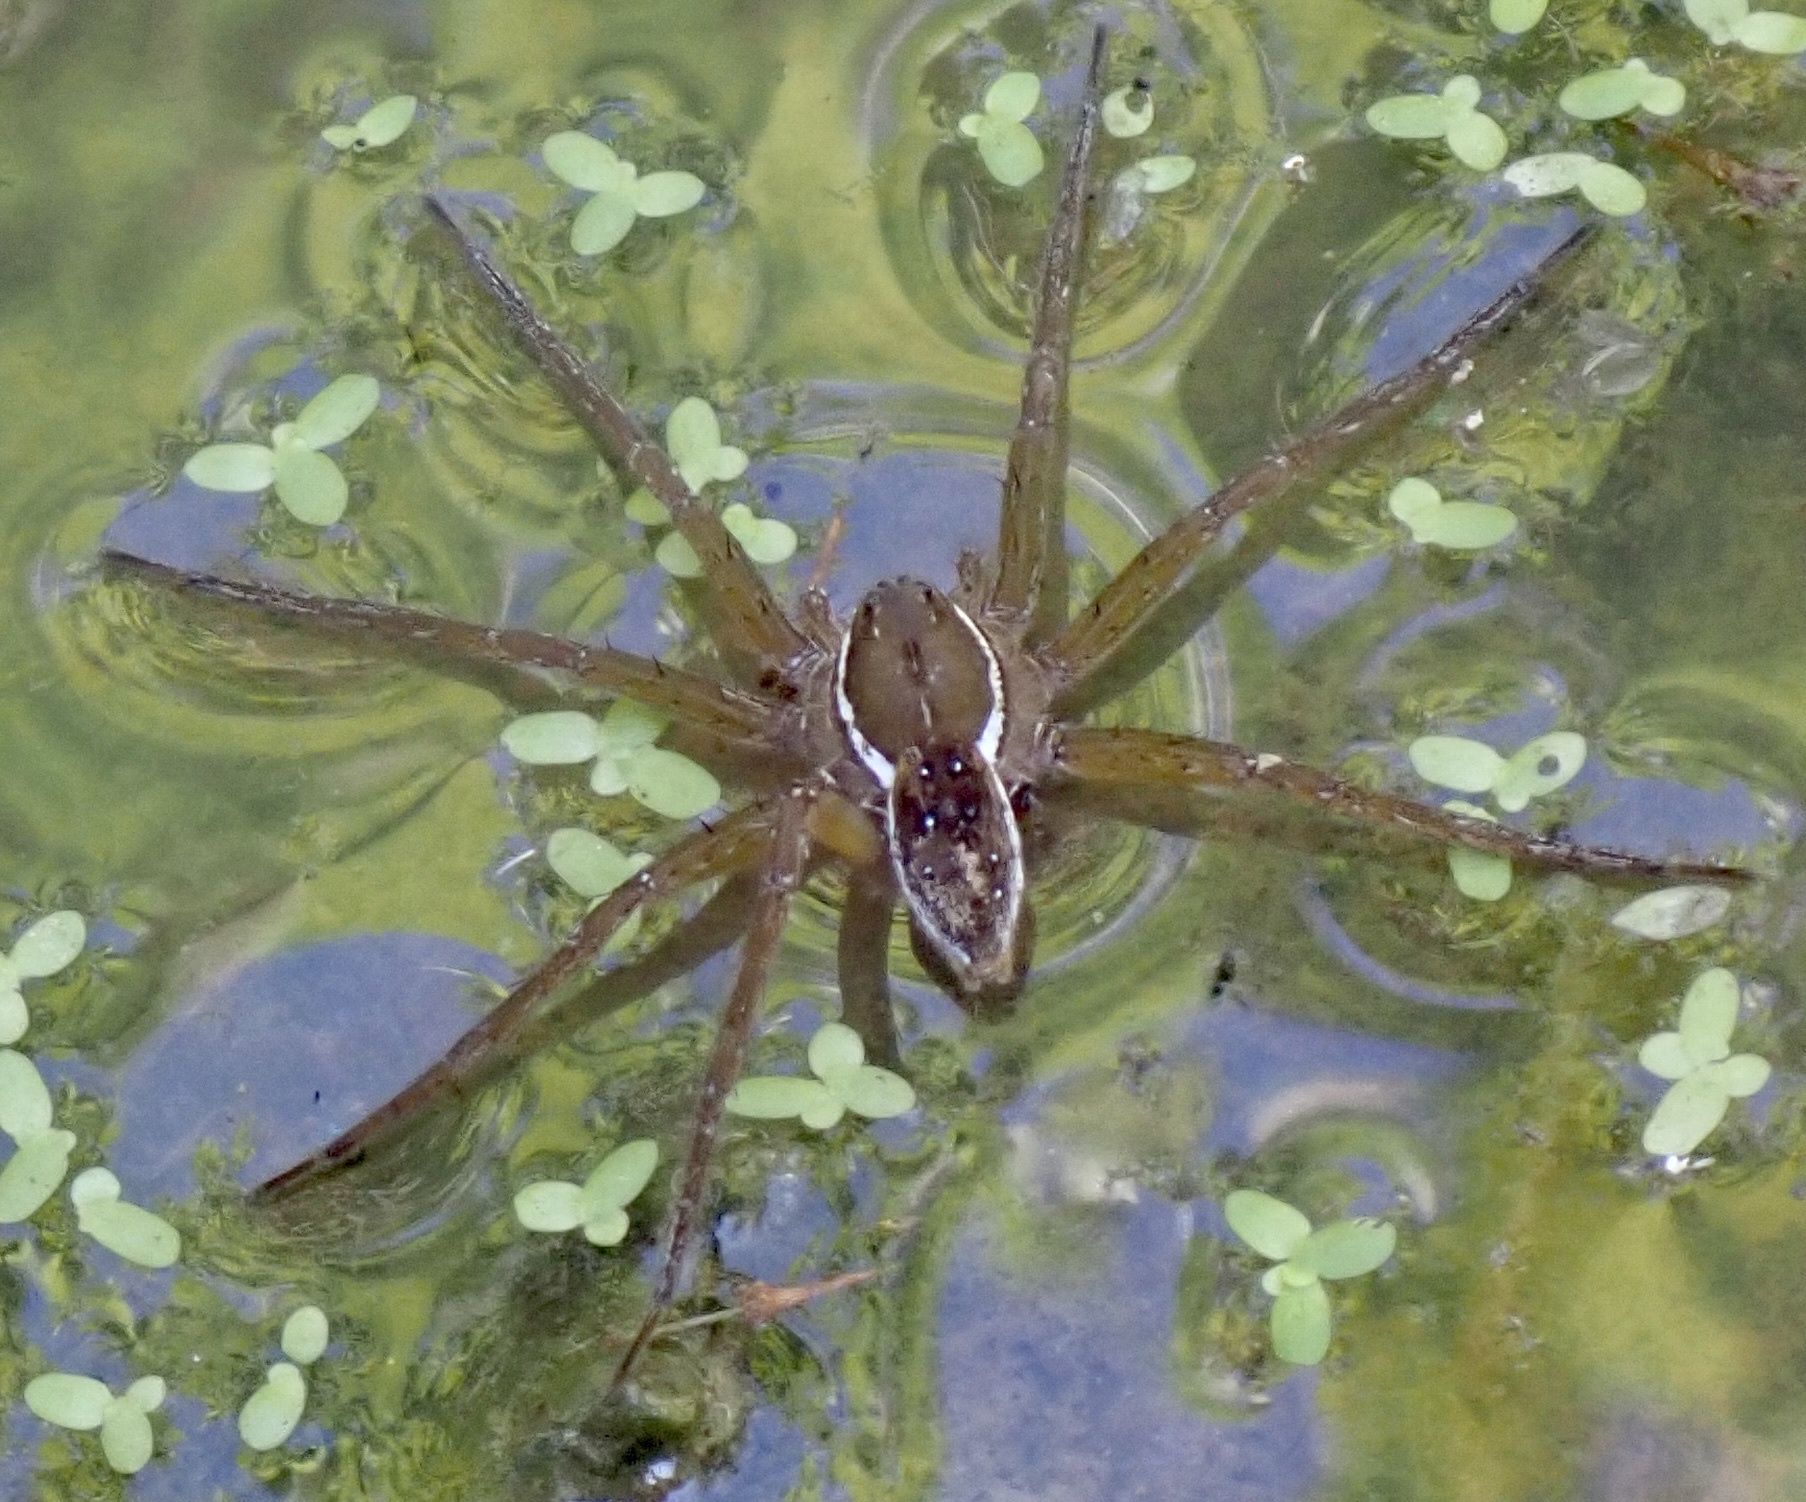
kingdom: Animalia
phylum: Arthropoda
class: Arachnida
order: Araneae
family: Pisauridae
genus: Dolomedes
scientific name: Dolomedes triton
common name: Six-spotted fishing spider
